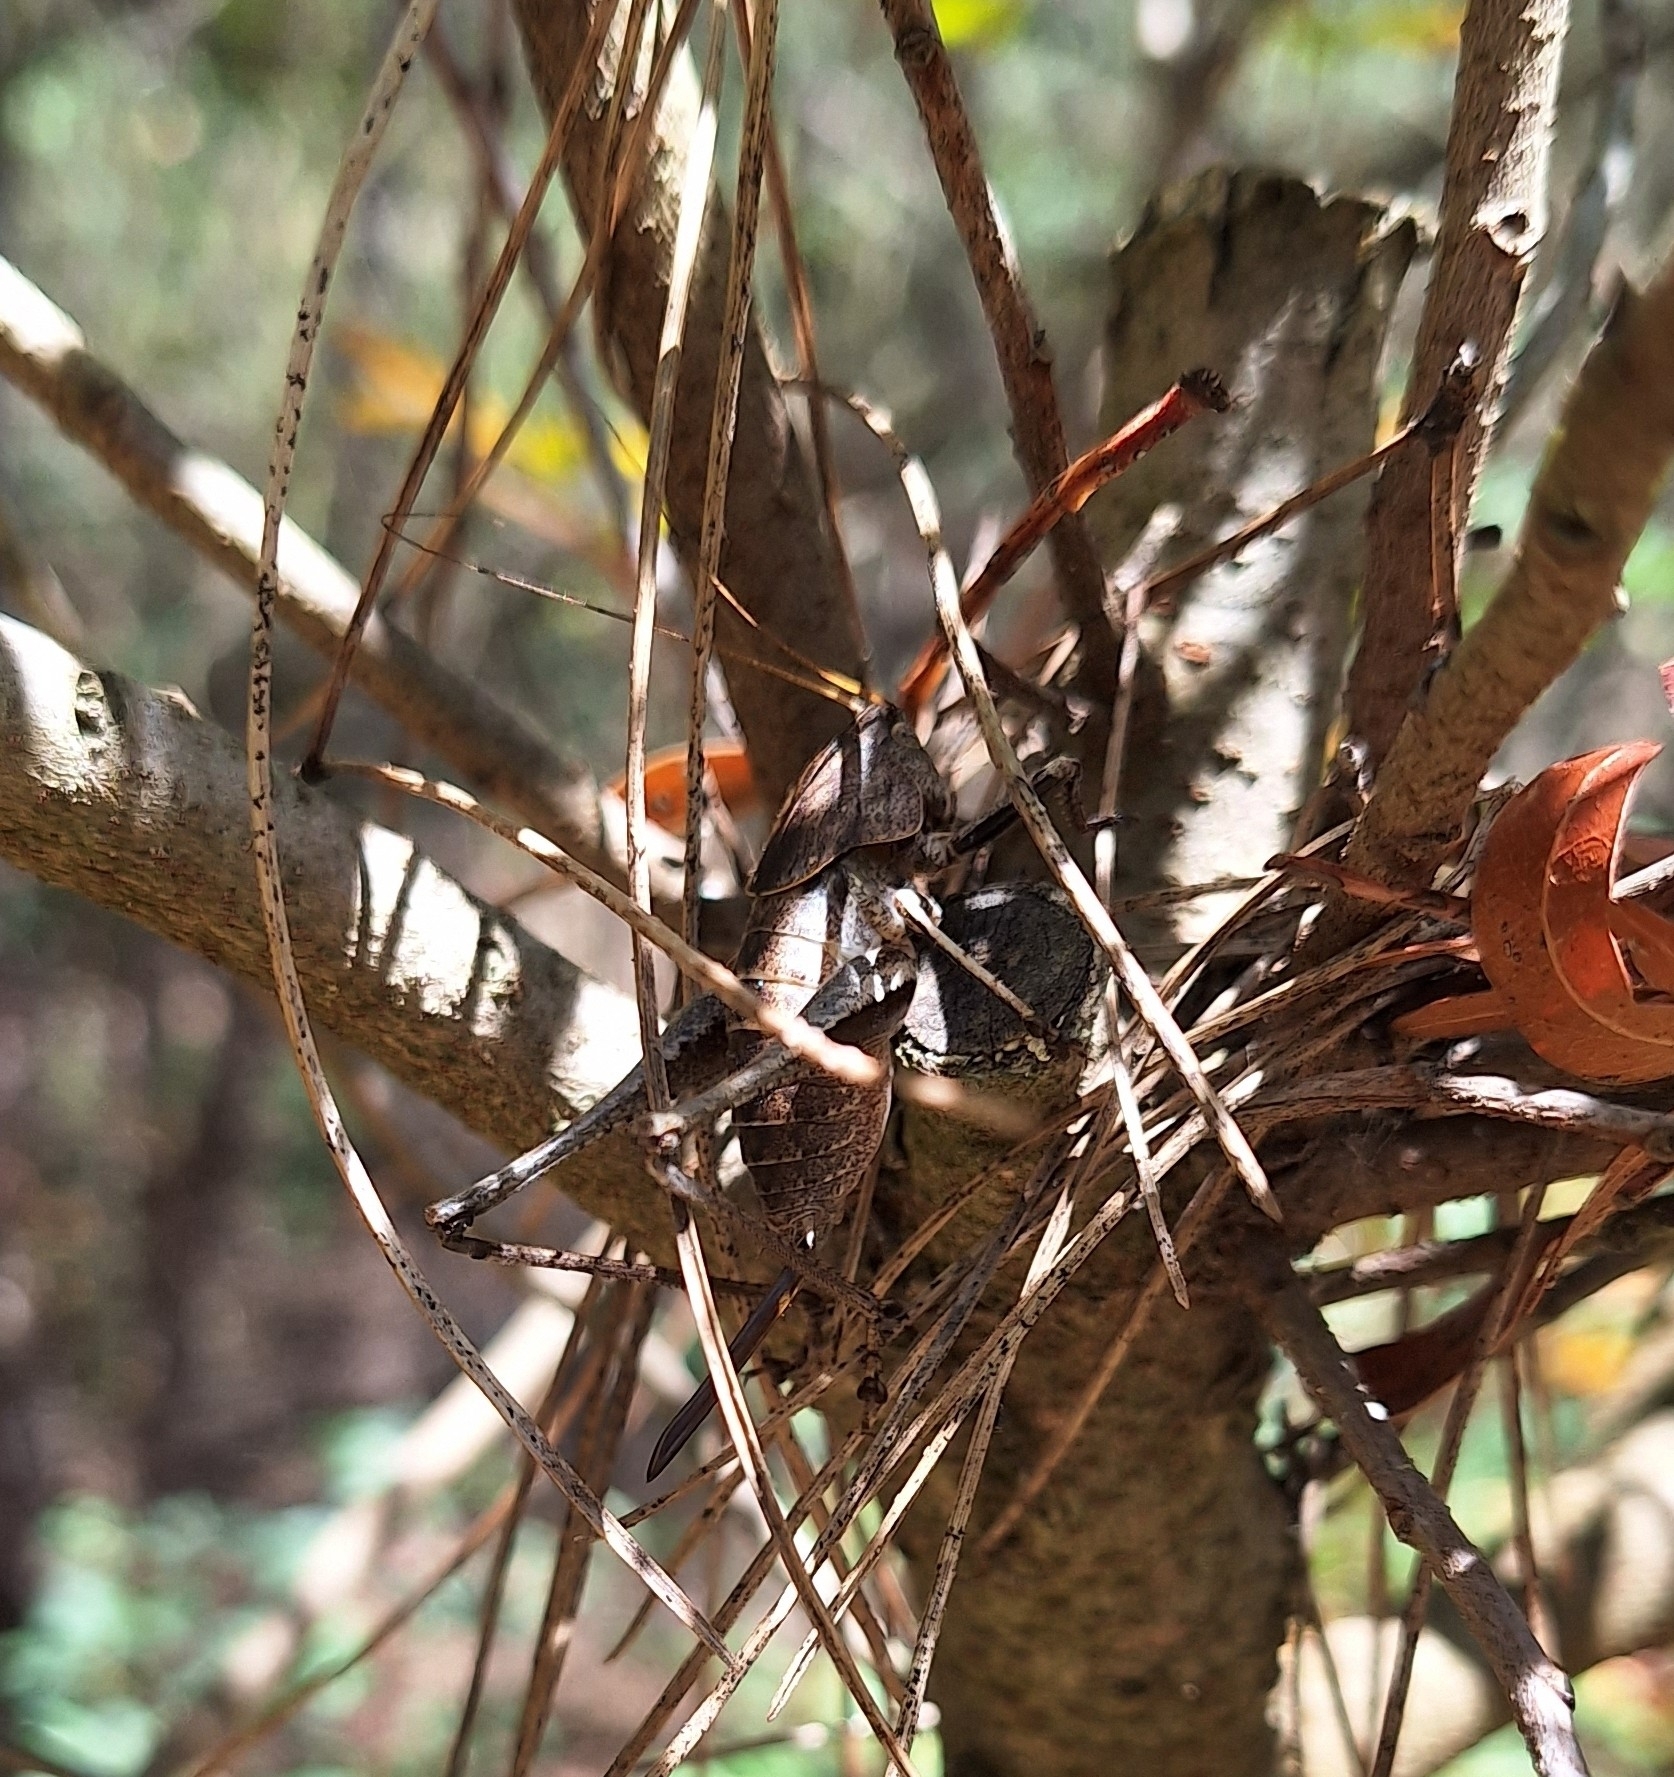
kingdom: Animalia
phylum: Arthropoda
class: Insecta
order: Orthoptera
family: Tettigoniidae
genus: Thyreonotus
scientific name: Thyreonotus corsicus
